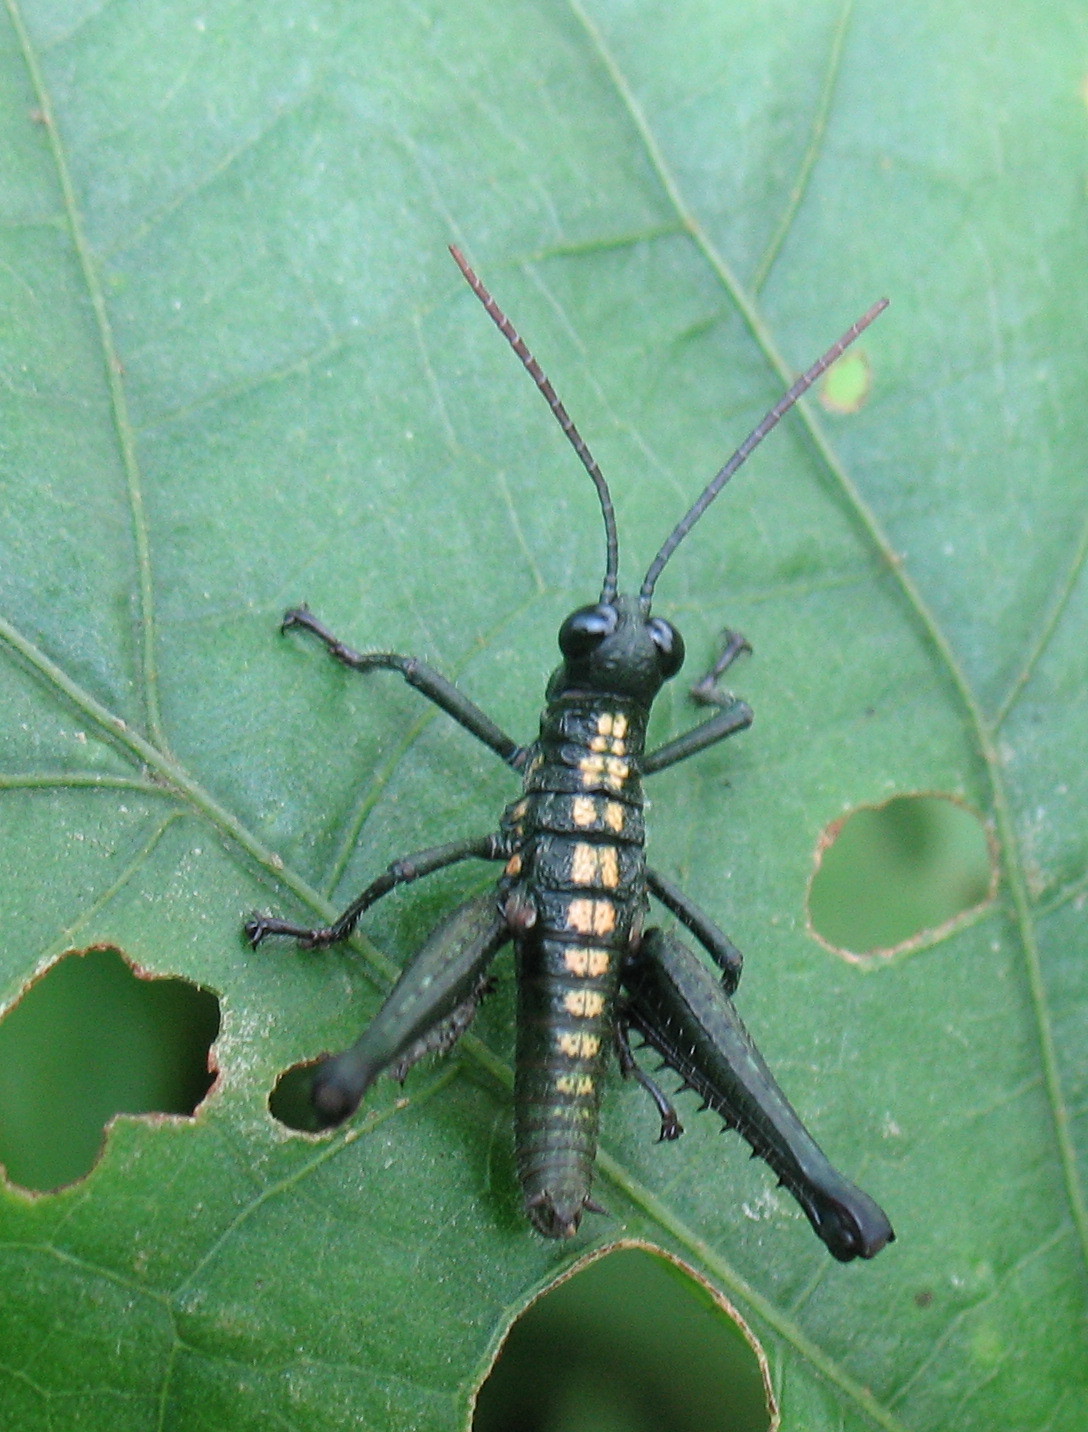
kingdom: Animalia
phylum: Arthropoda
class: Insecta
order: Orthoptera
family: Acrididae
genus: Trichopaon
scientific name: Trichopaon tatei
